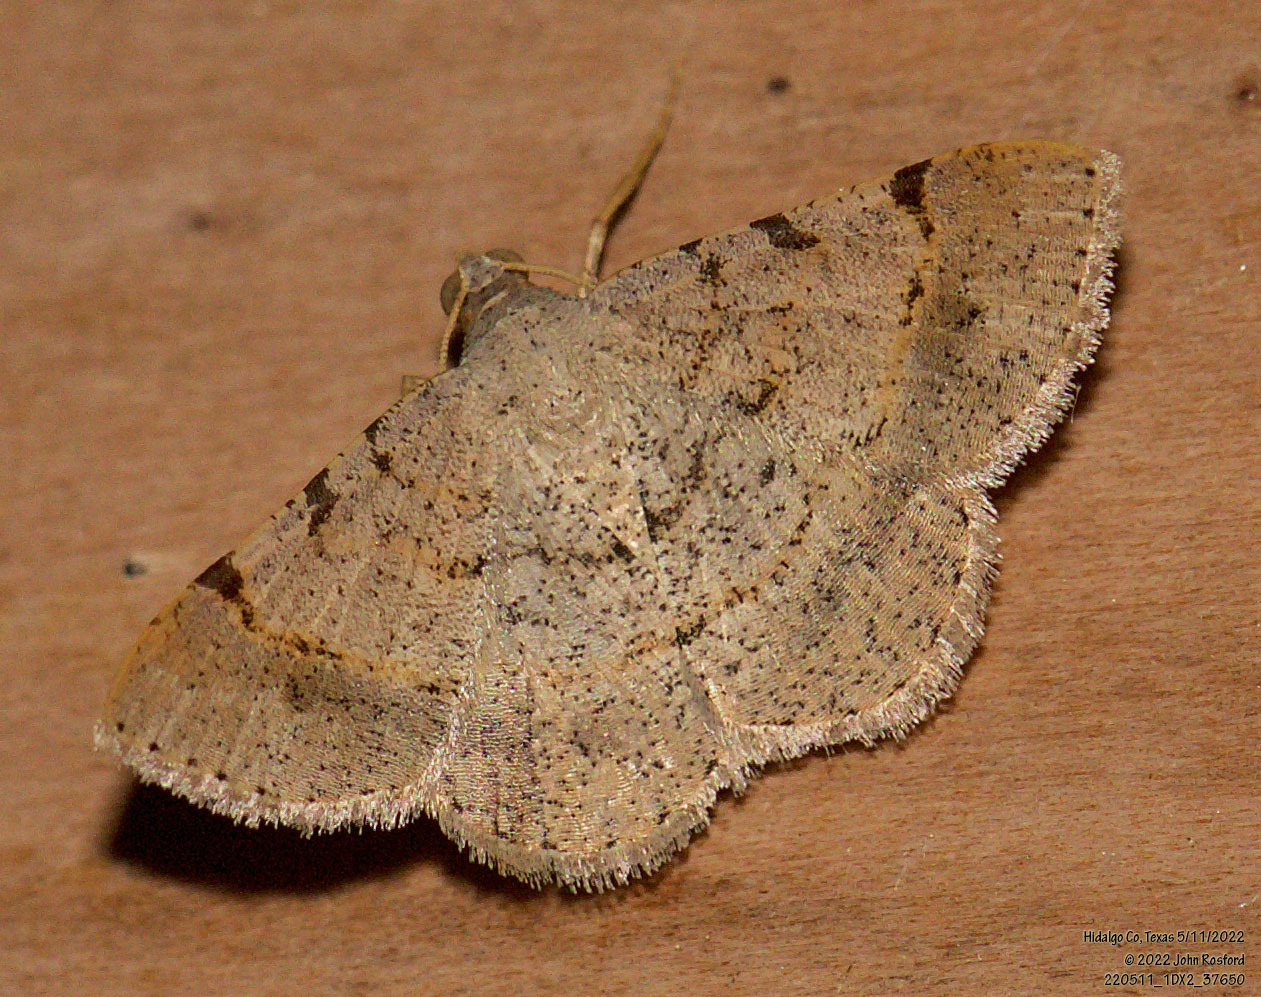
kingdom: Animalia
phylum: Arthropoda
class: Insecta
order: Lepidoptera
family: Geometridae
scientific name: Geometridae
